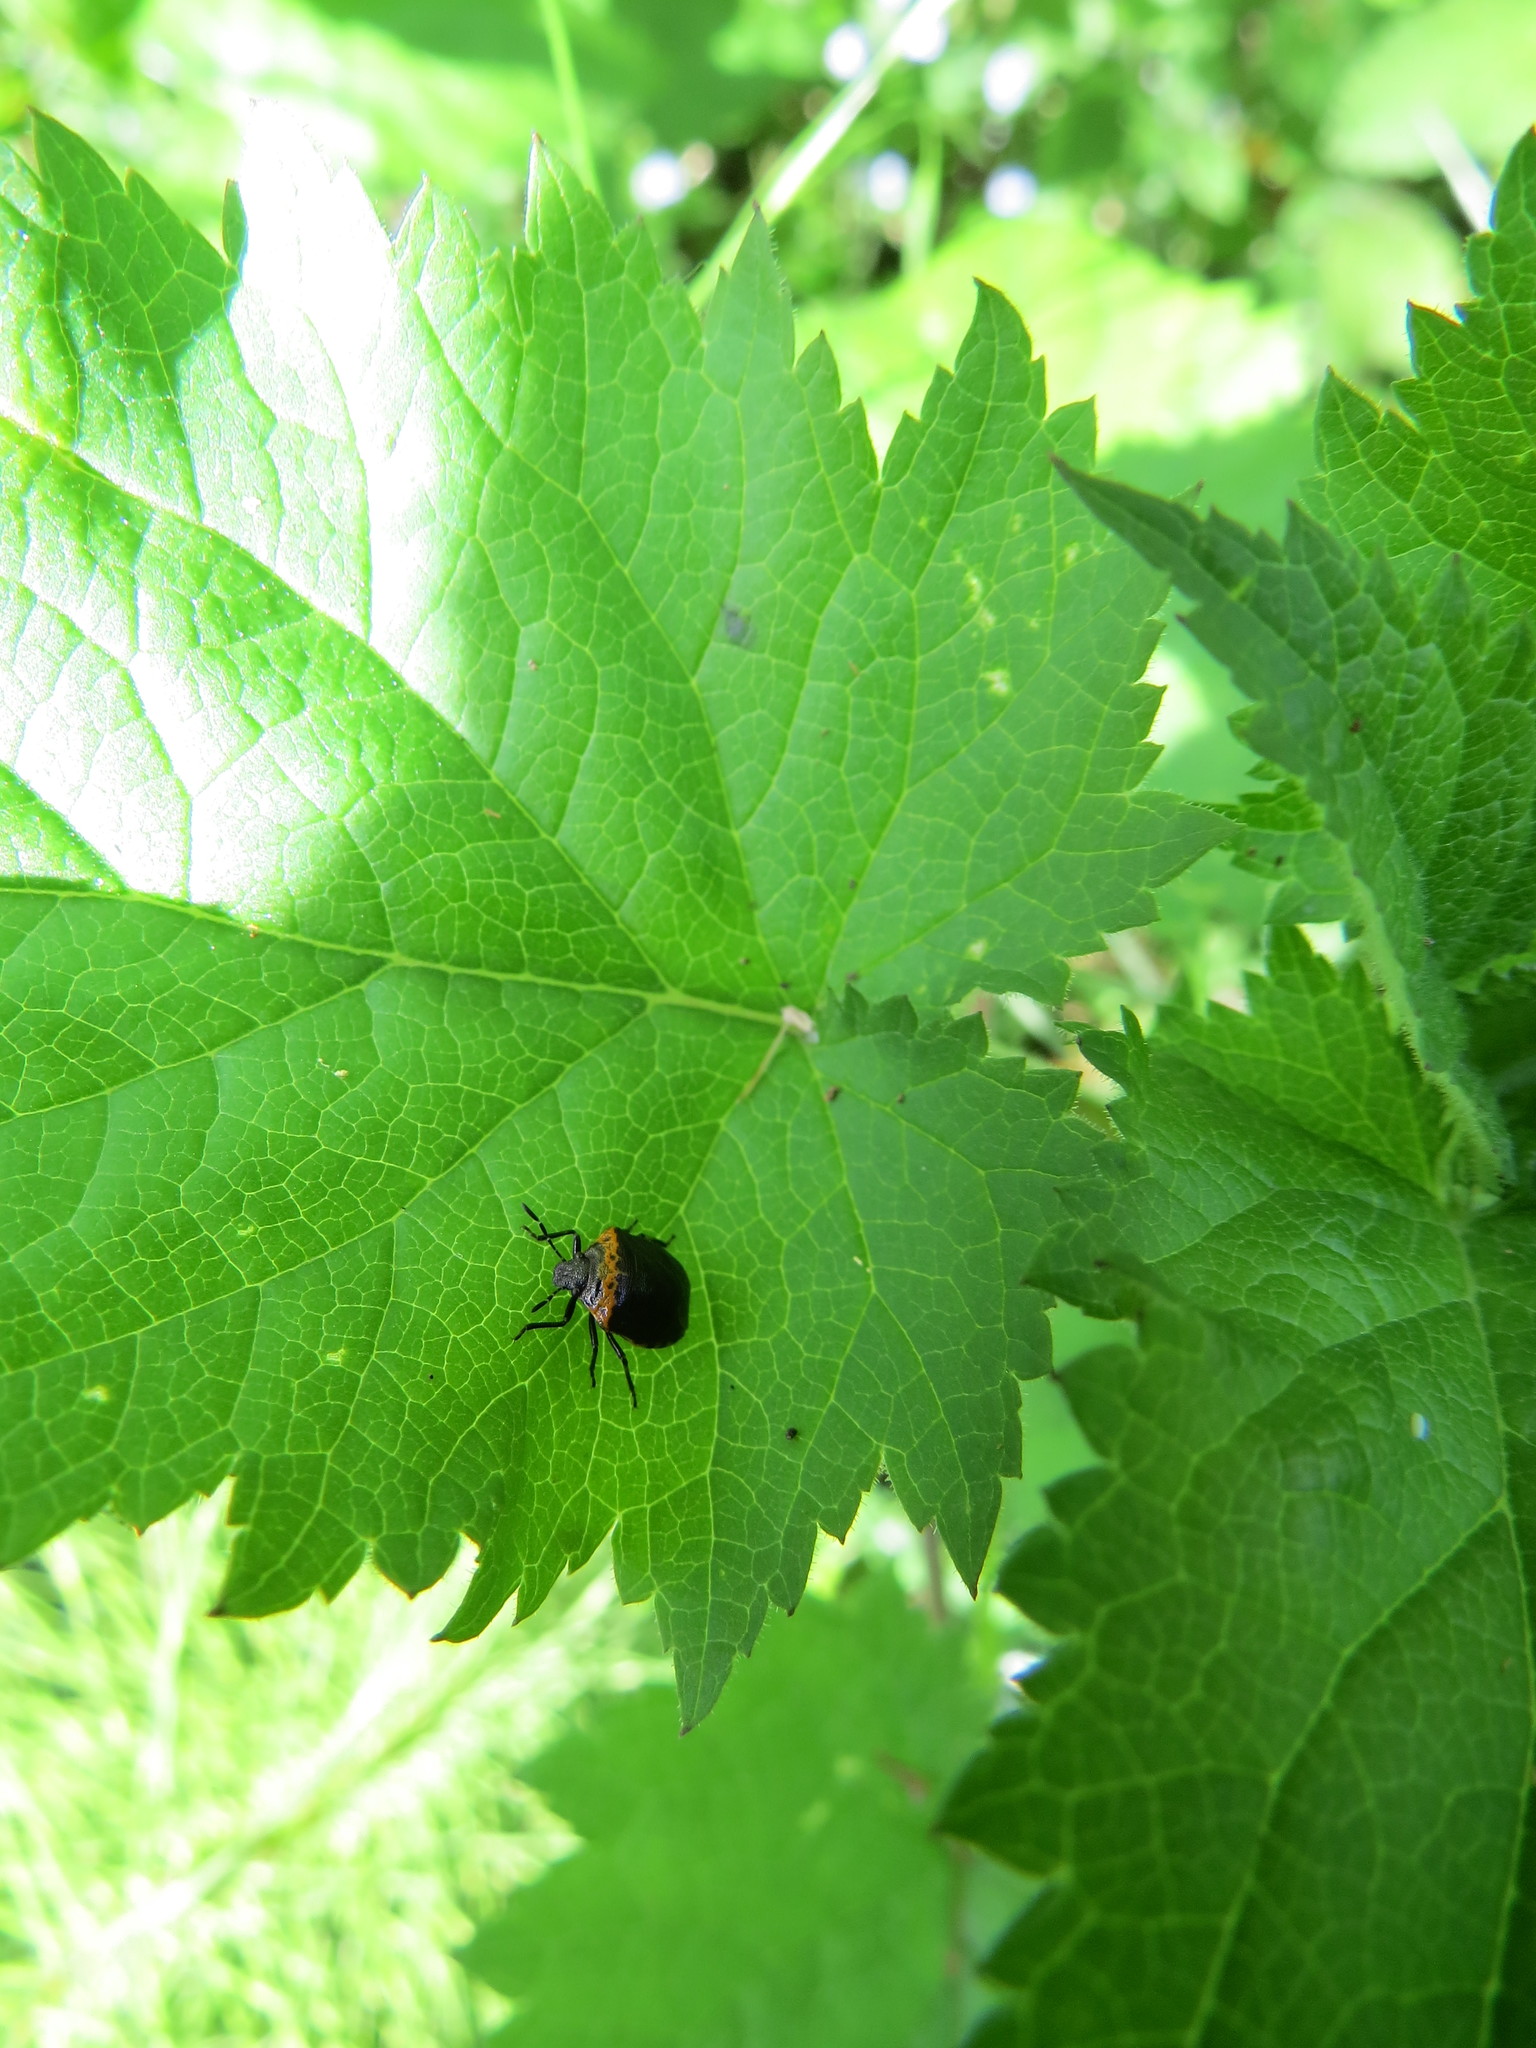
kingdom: Animalia
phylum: Arthropoda
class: Insecta
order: Hemiptera
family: Pentatomidae
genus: Cosmopepla
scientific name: Cosmopepla uhleri
